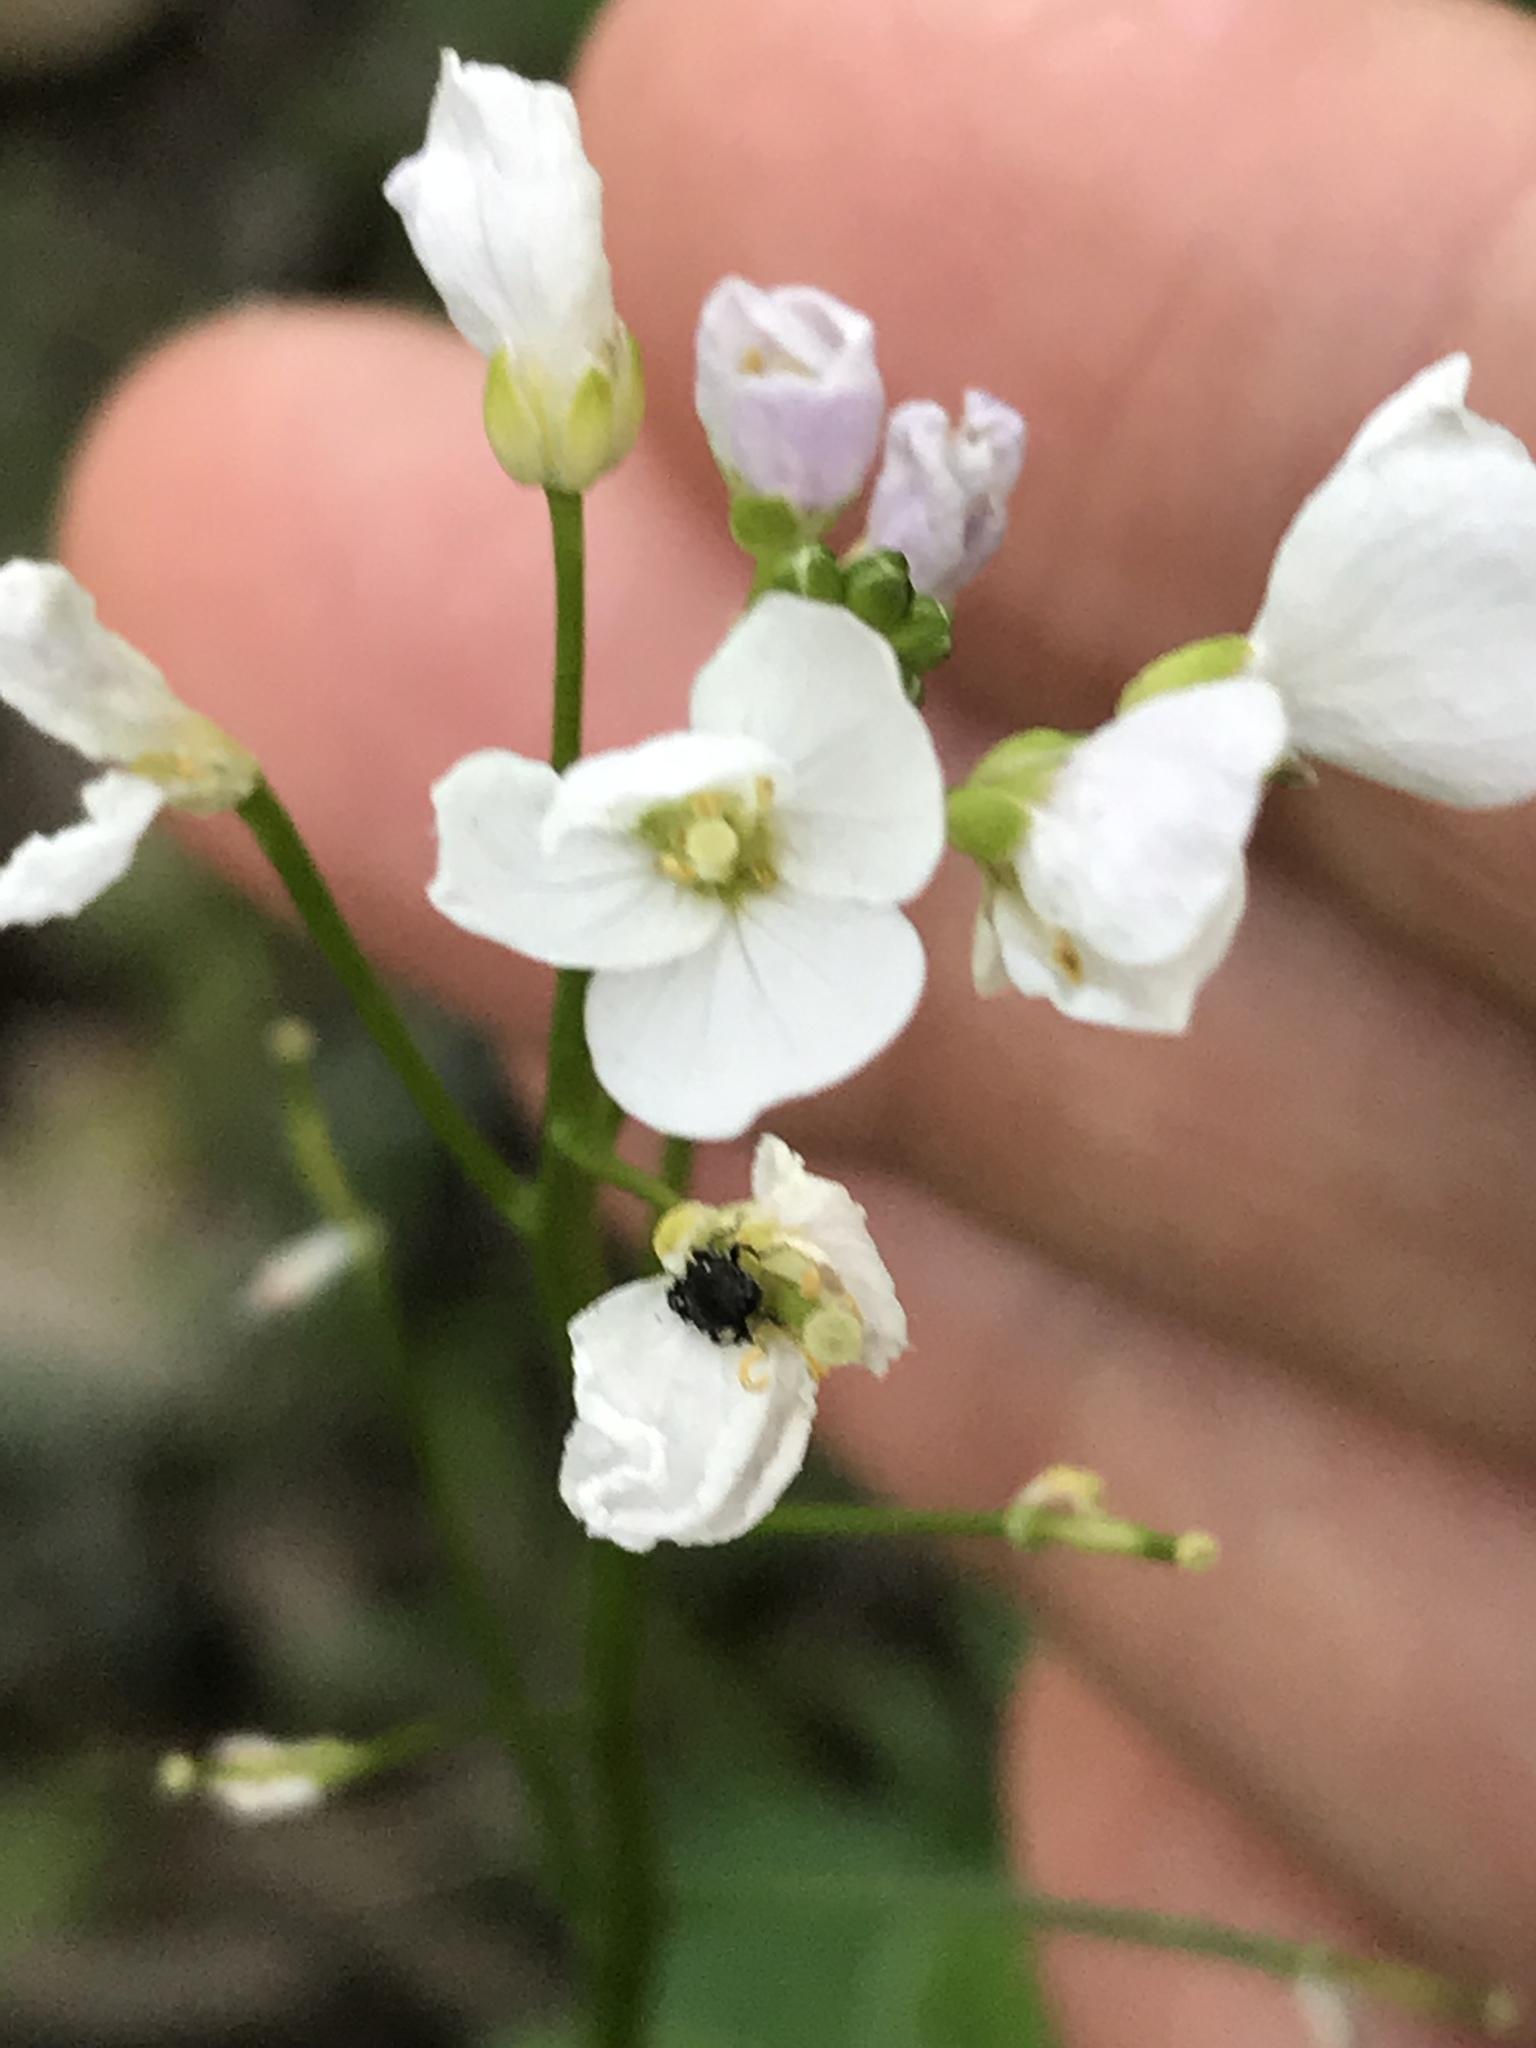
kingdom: Plantae
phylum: Tracheophyta
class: Magnoliopsida
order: Brassicales
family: Brassicaceae
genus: Cardamine
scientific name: Cardamine californica
